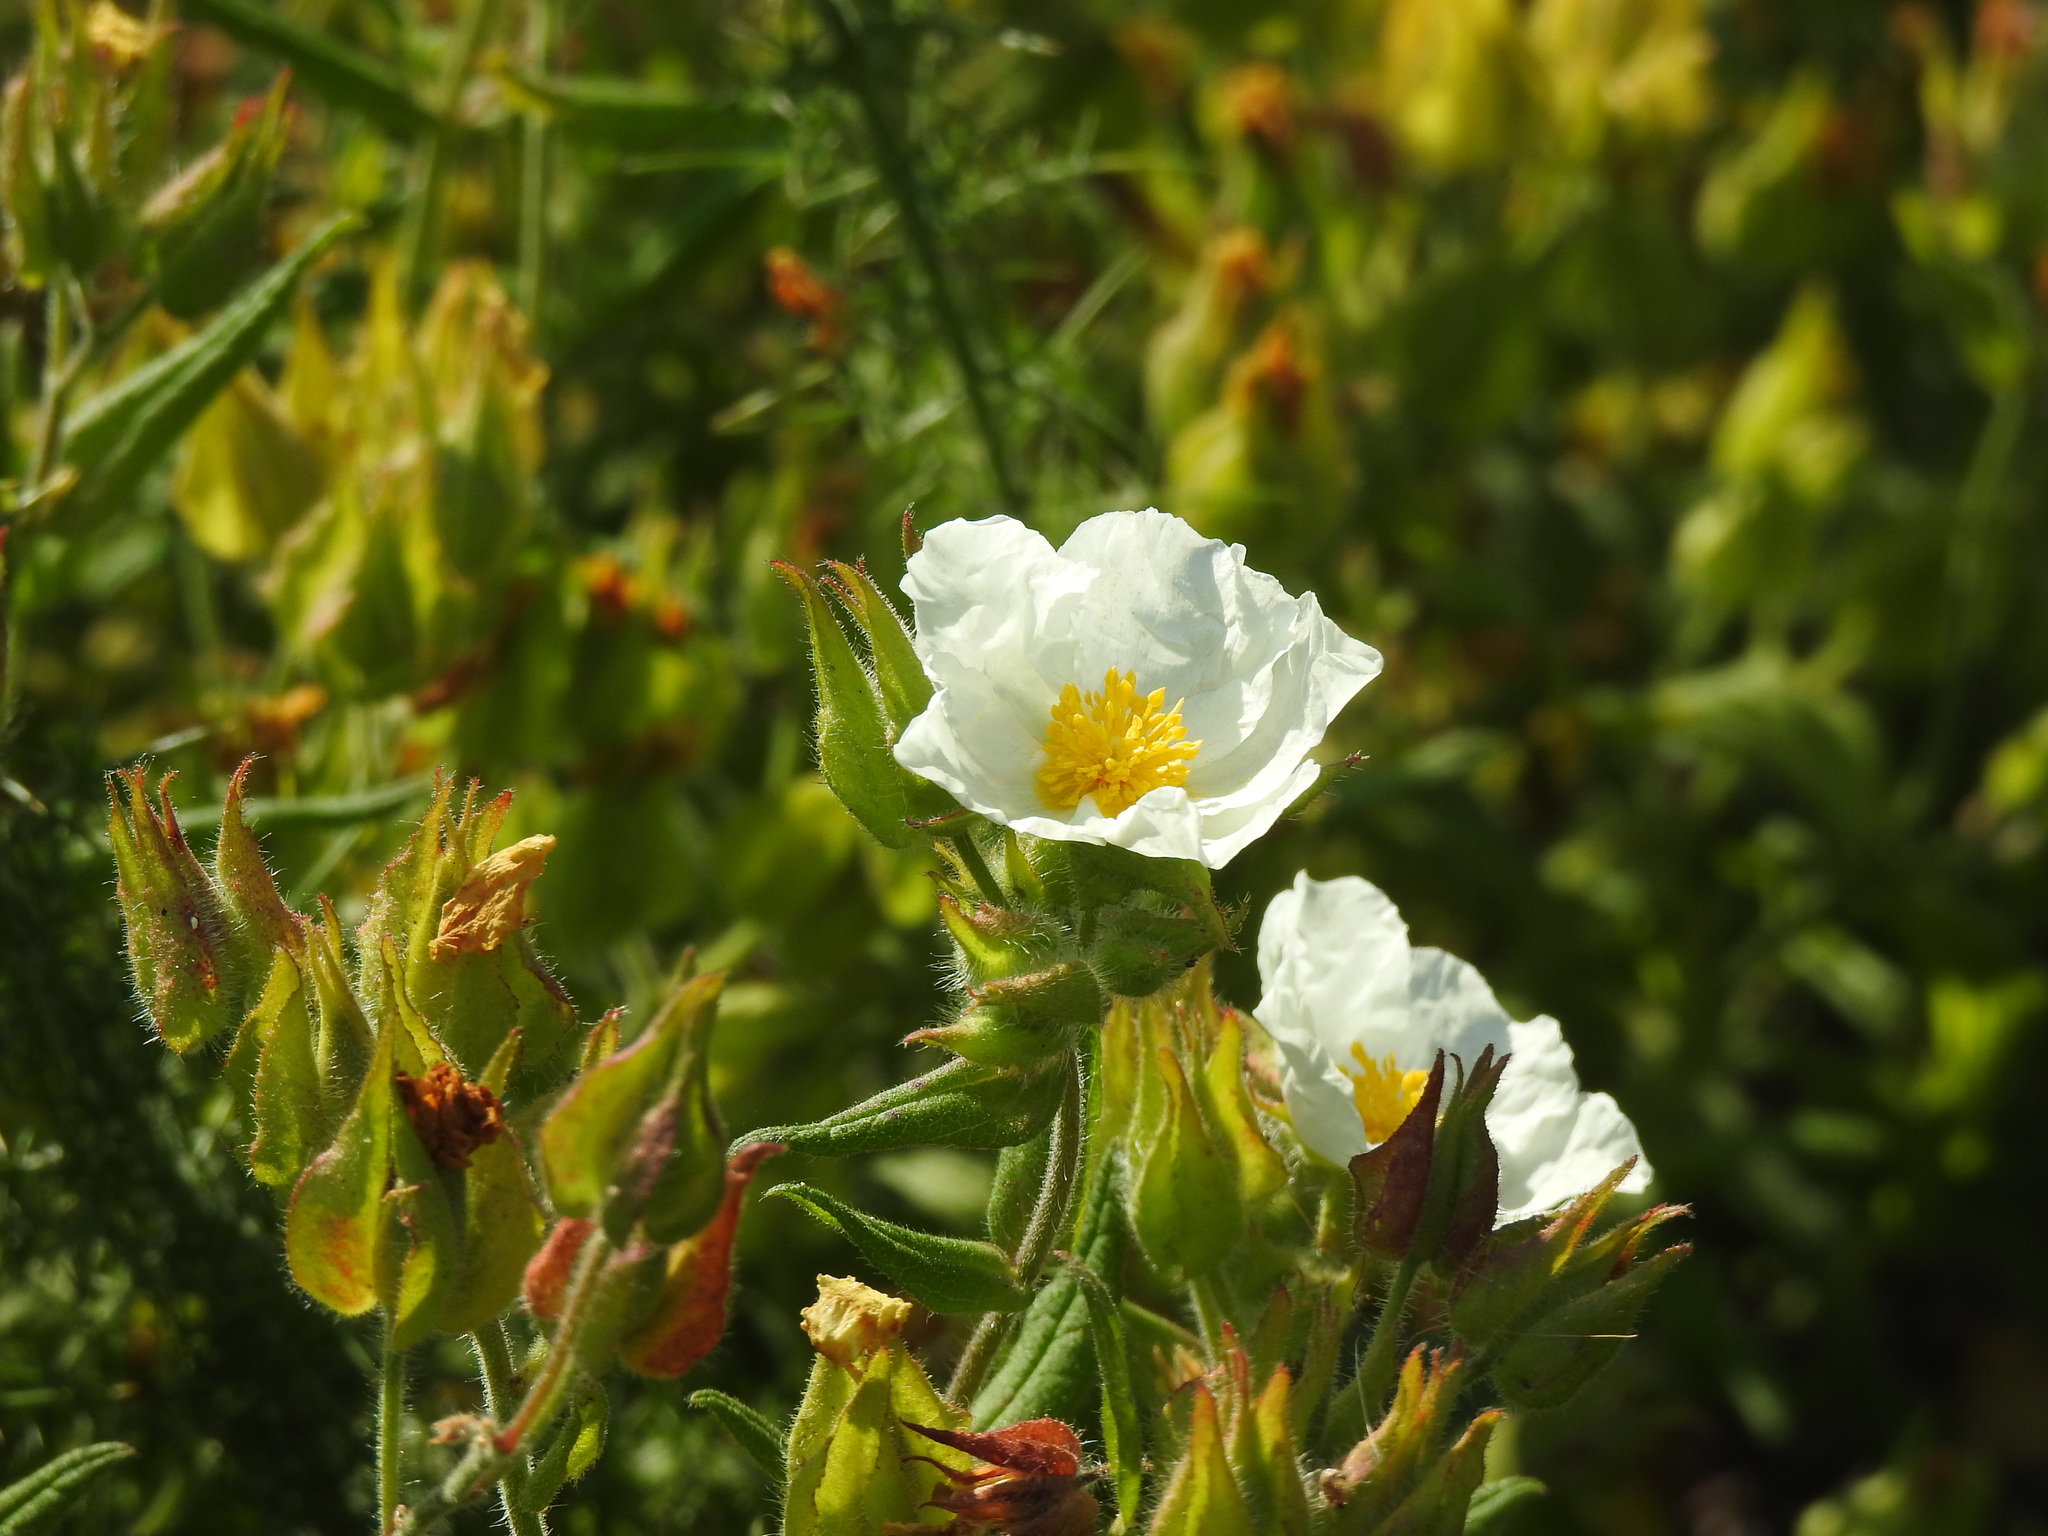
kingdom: Plantae
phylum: Tracheophyta
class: Magnoliopsida
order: Malvales
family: Cistaceae
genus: Cistus
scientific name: Cistus inflatus
